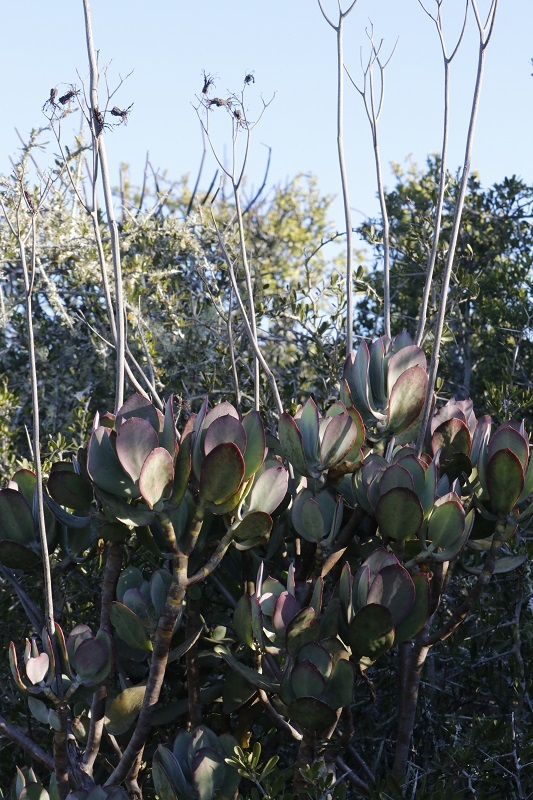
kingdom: Plantae
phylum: Tracheophyta
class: Magnoliopsida
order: Saxifragales
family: Crassulaceae
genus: Cotyledon
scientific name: Cotyledon velutina
